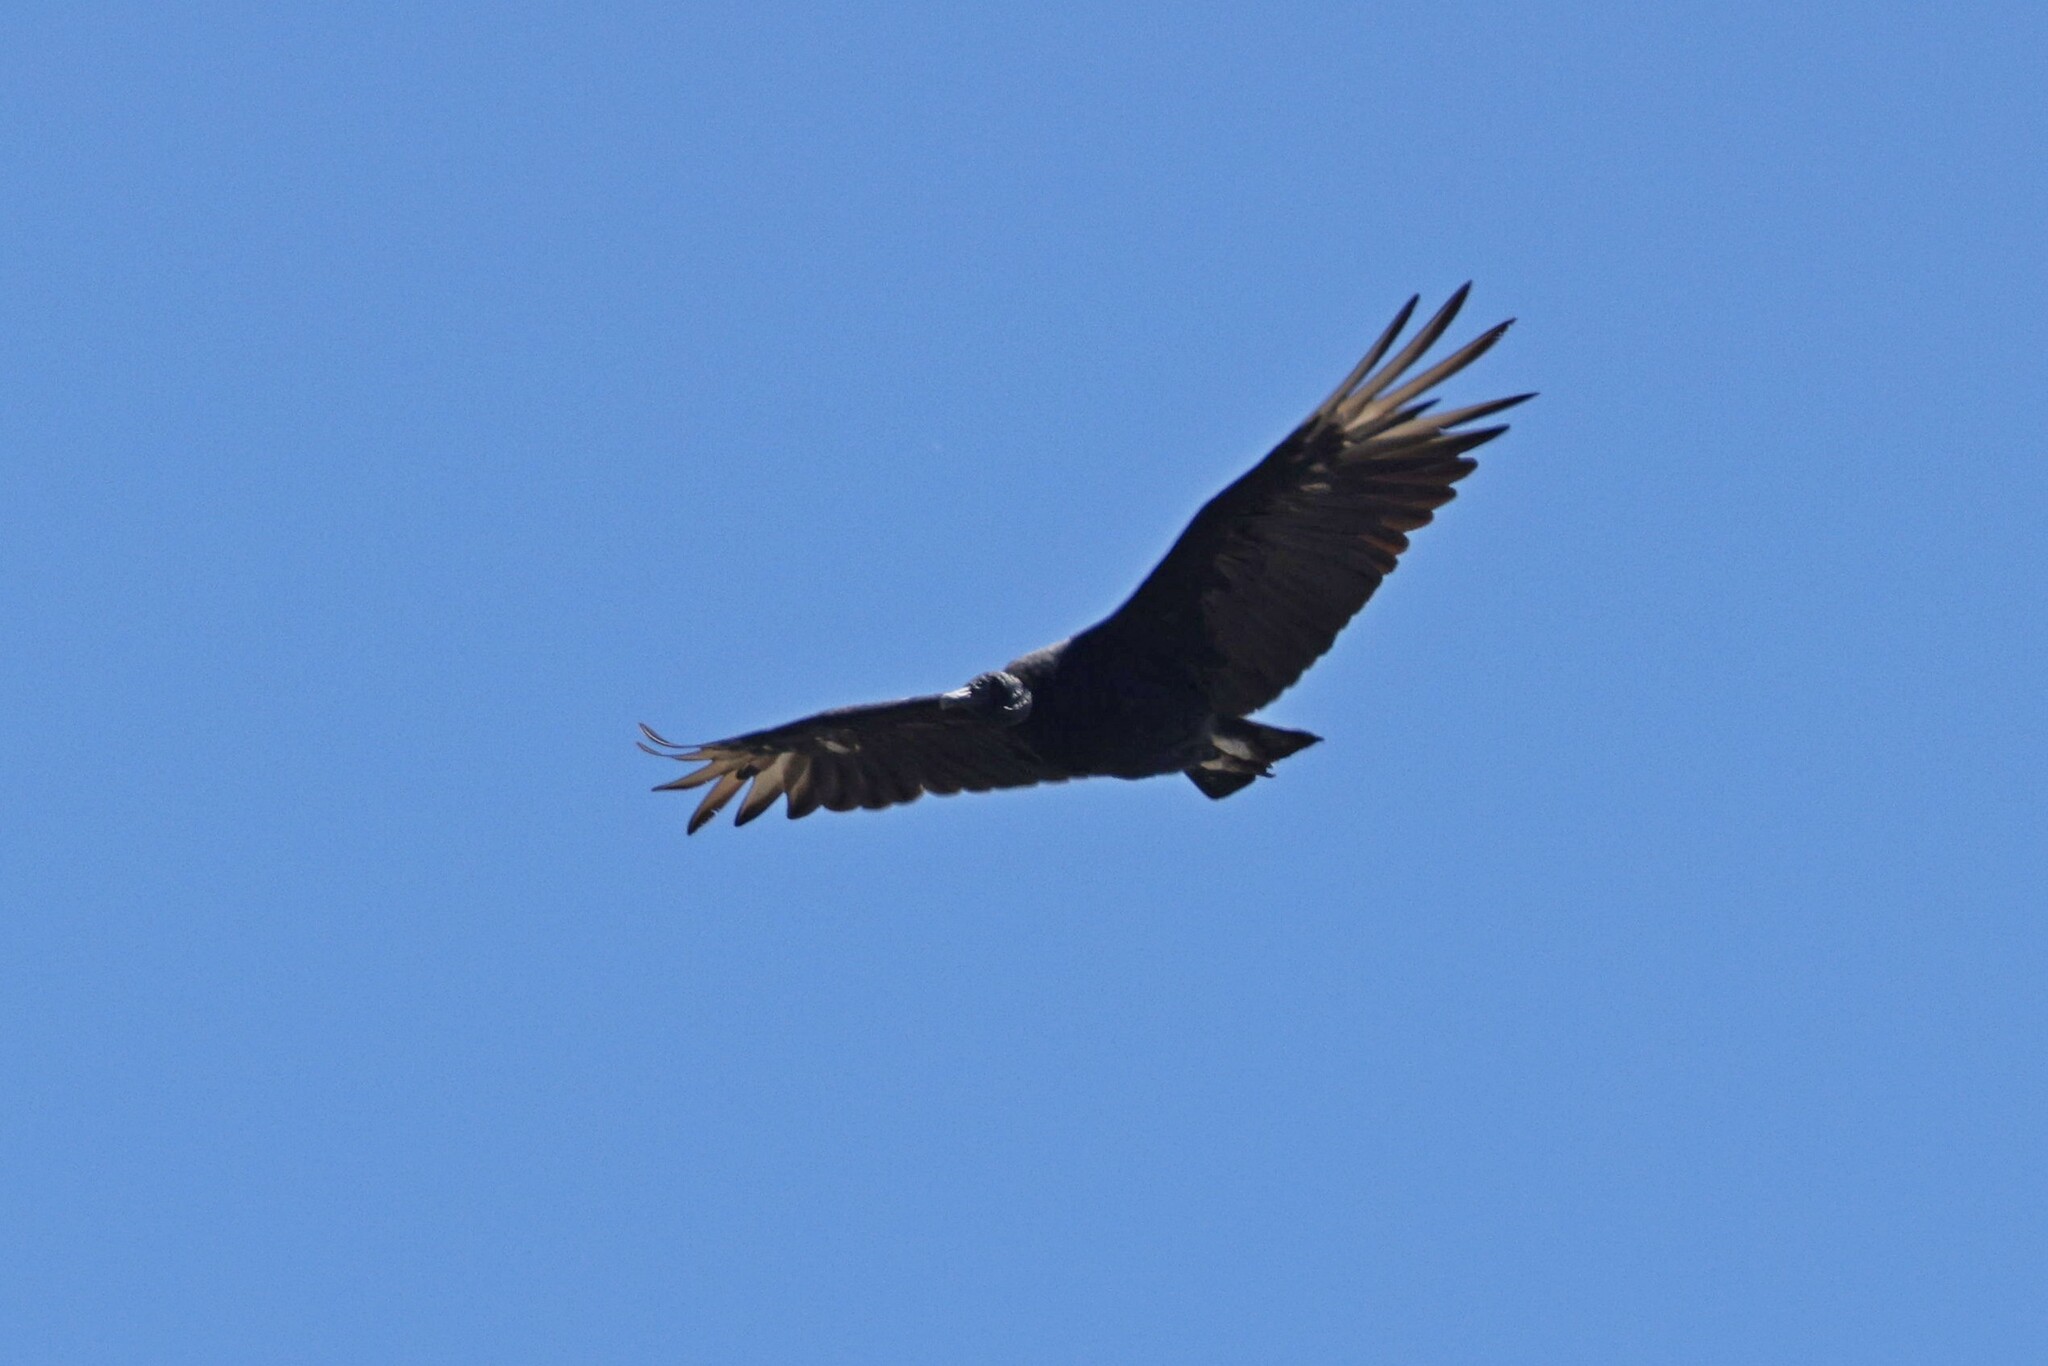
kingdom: Animalia
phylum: Chordata
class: Aves
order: Accipitriformes
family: Cathartidae
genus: Coragyps
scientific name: Coragyps atratus
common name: Black vulture
